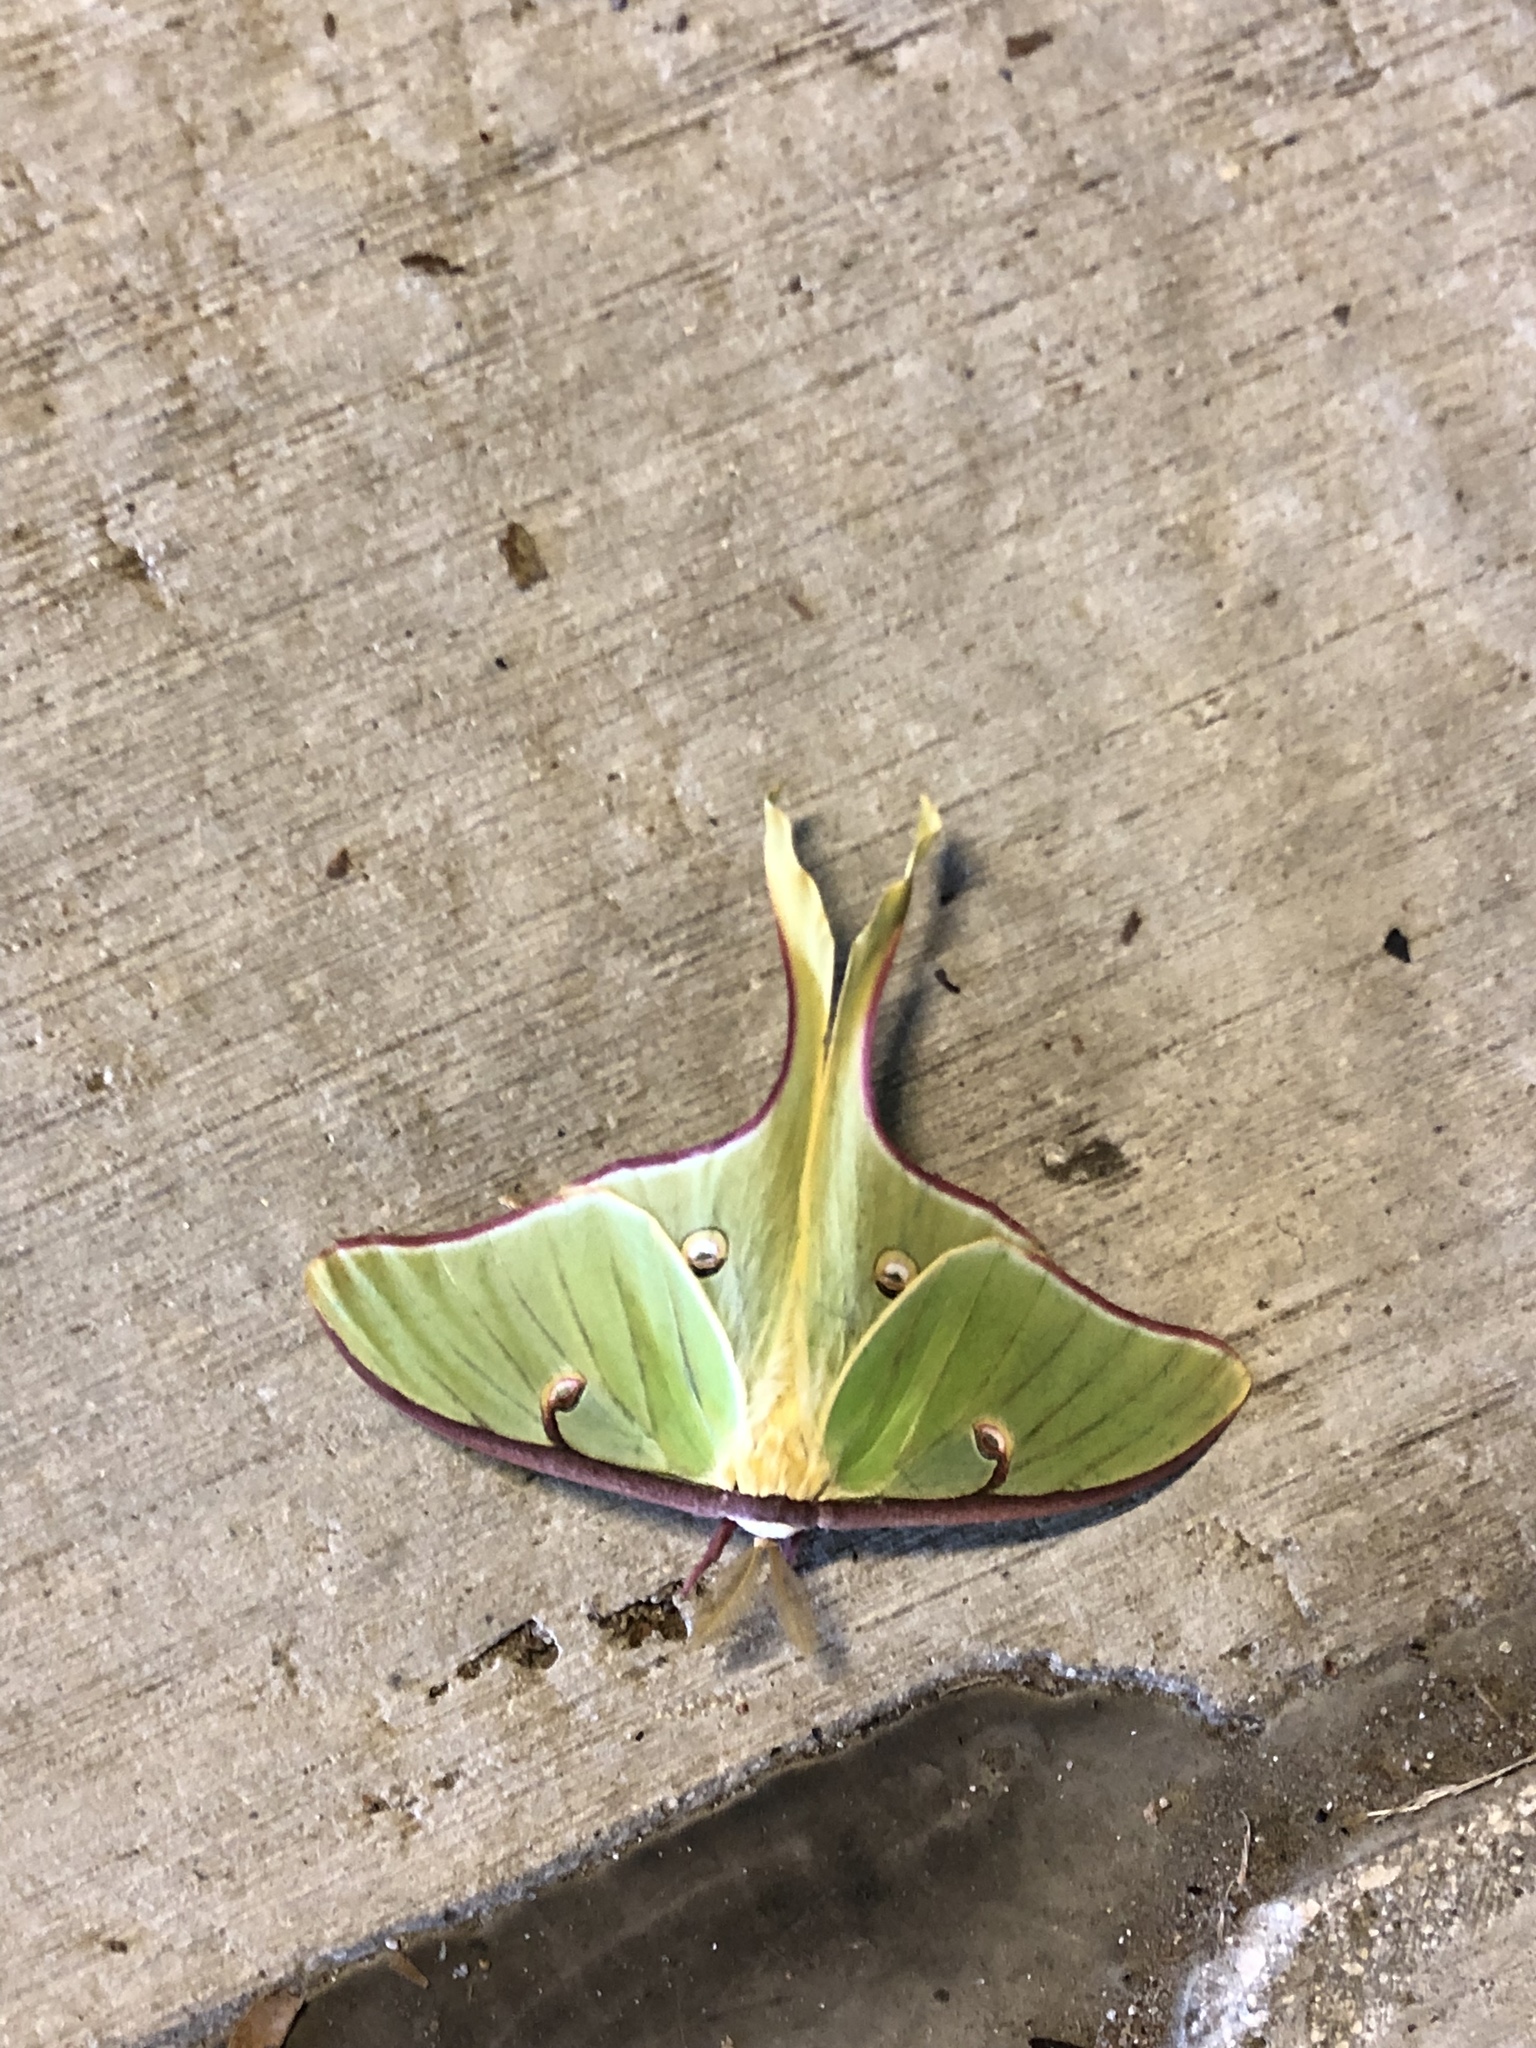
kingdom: Animalia
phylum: Arthropoda
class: Insecta
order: Lepidoptera
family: Saturniidae
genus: Actias
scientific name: Actias luna
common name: Luna moth
